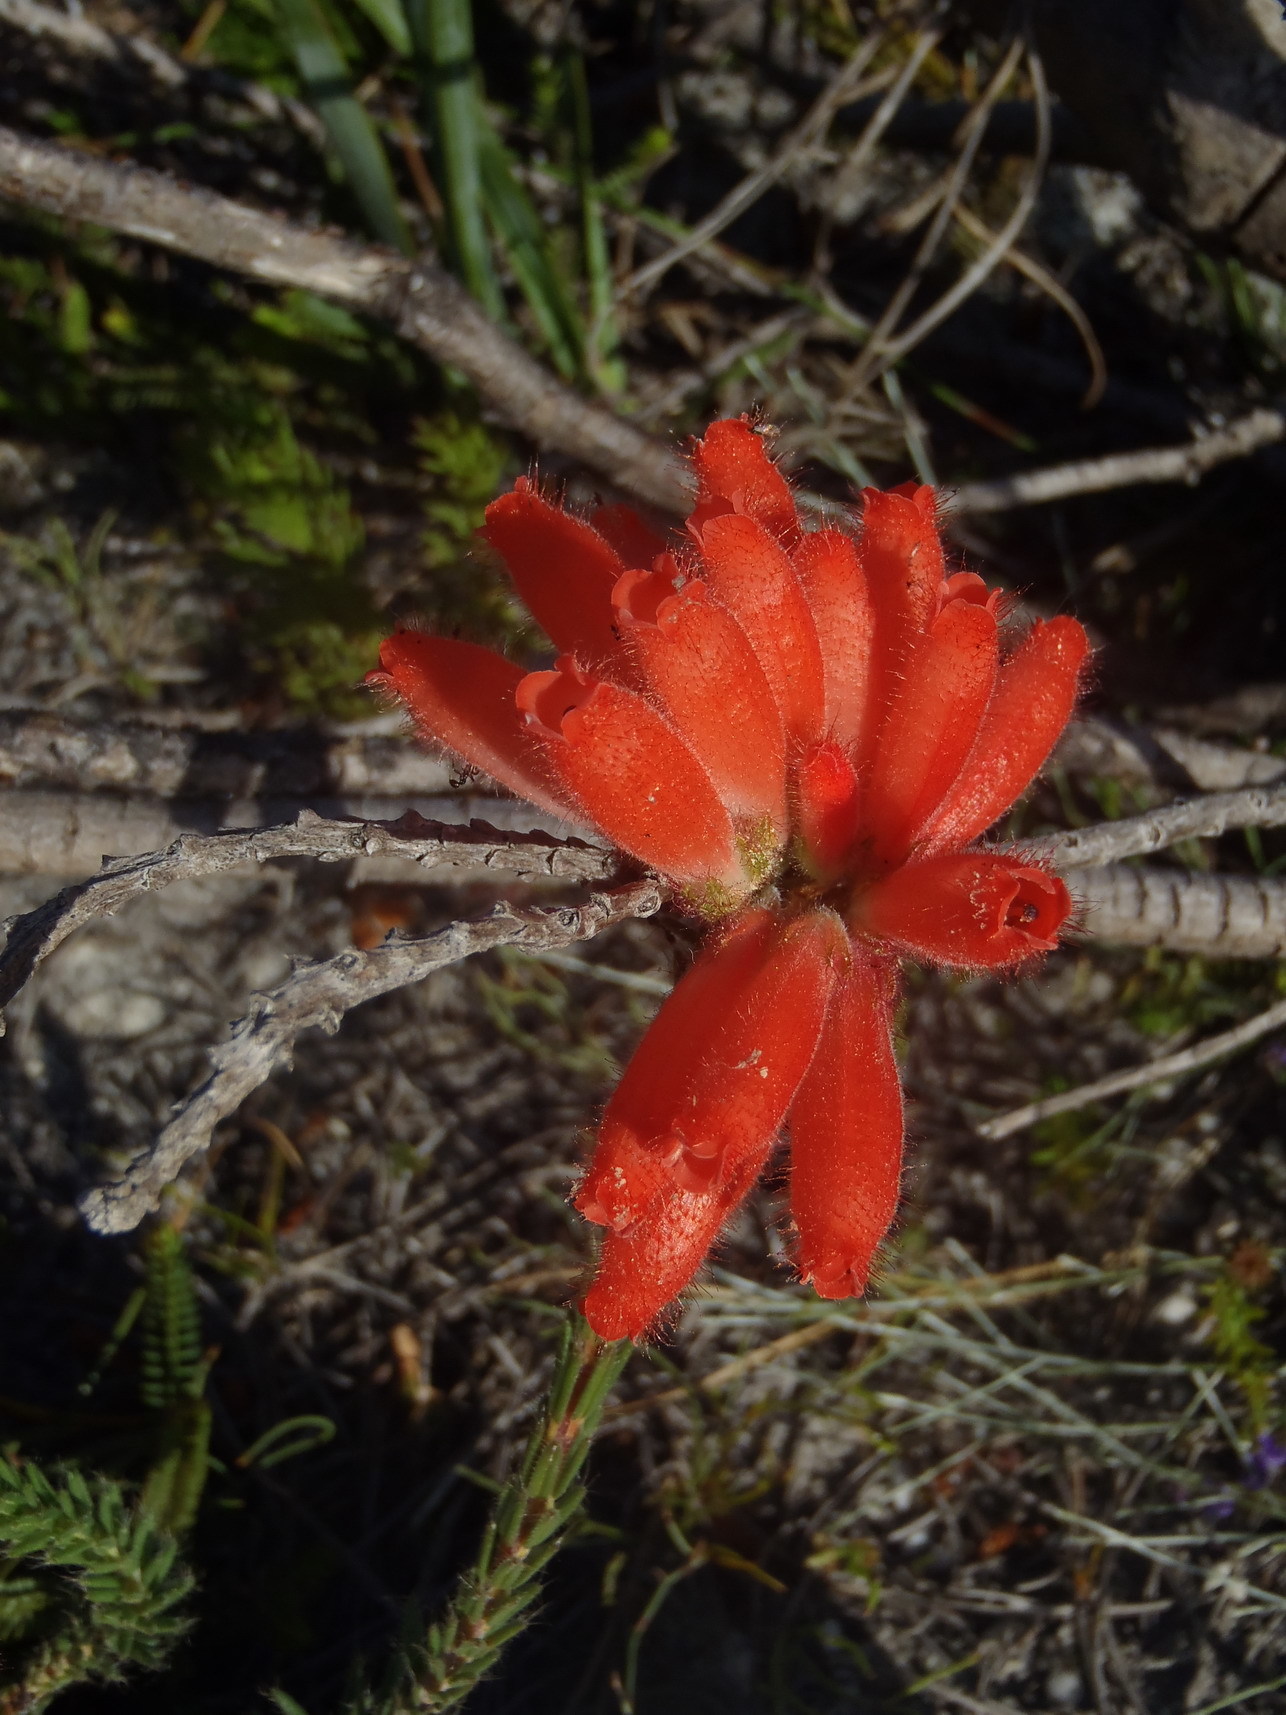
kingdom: Plantae
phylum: Tracheophyta
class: Magnoliopsida
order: Ericales
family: Ericaceae
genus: Erica
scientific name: Erica cerinthoides
